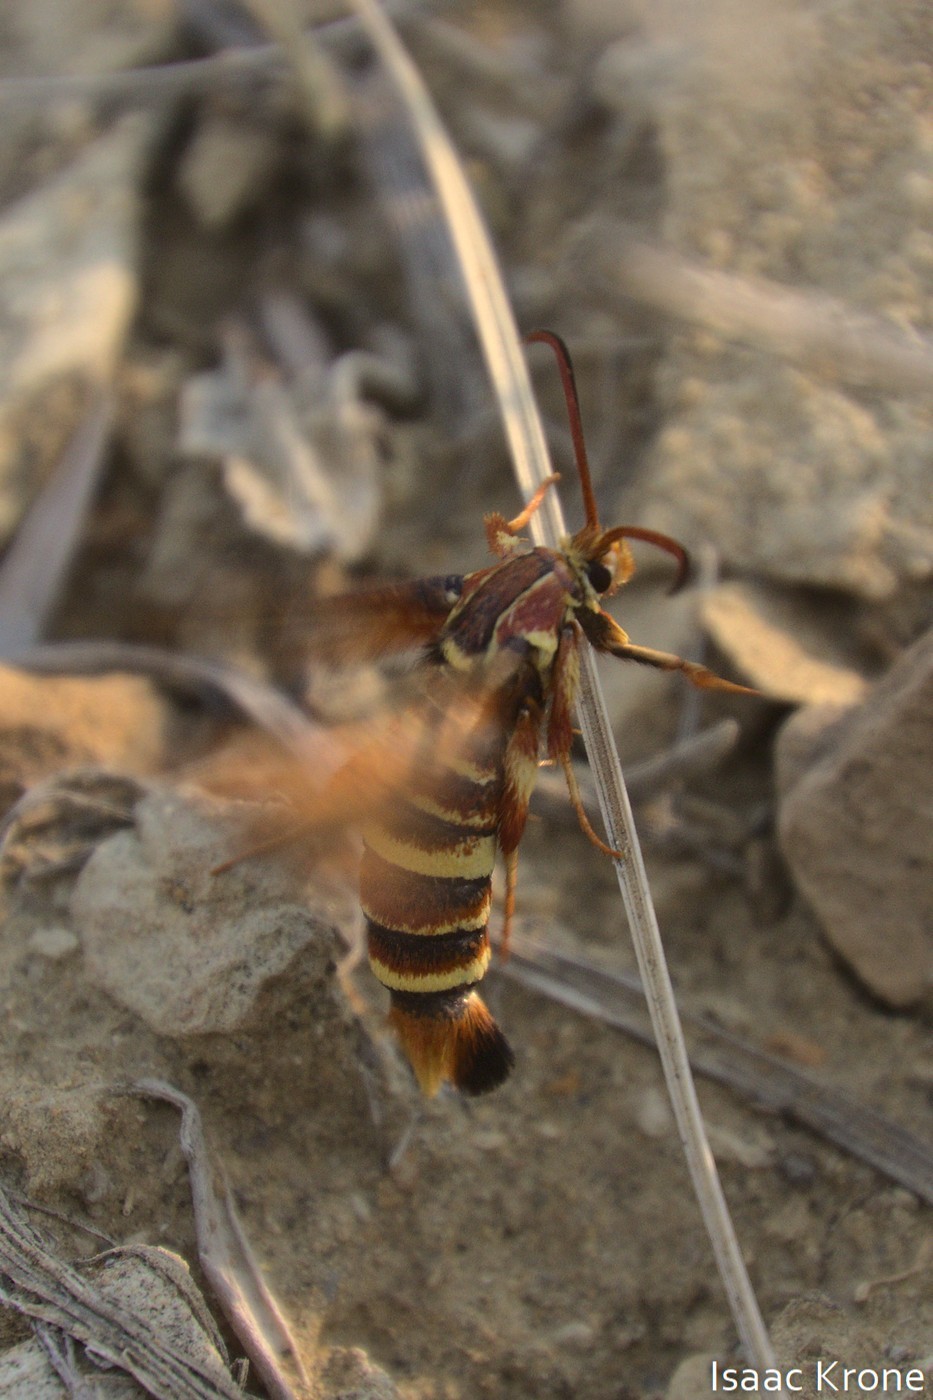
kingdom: Animalia
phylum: Arthropoda
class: Insecta
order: Lepidoptera
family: Sesiidae
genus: Euhagena
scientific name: Euhagena emphytiformis
